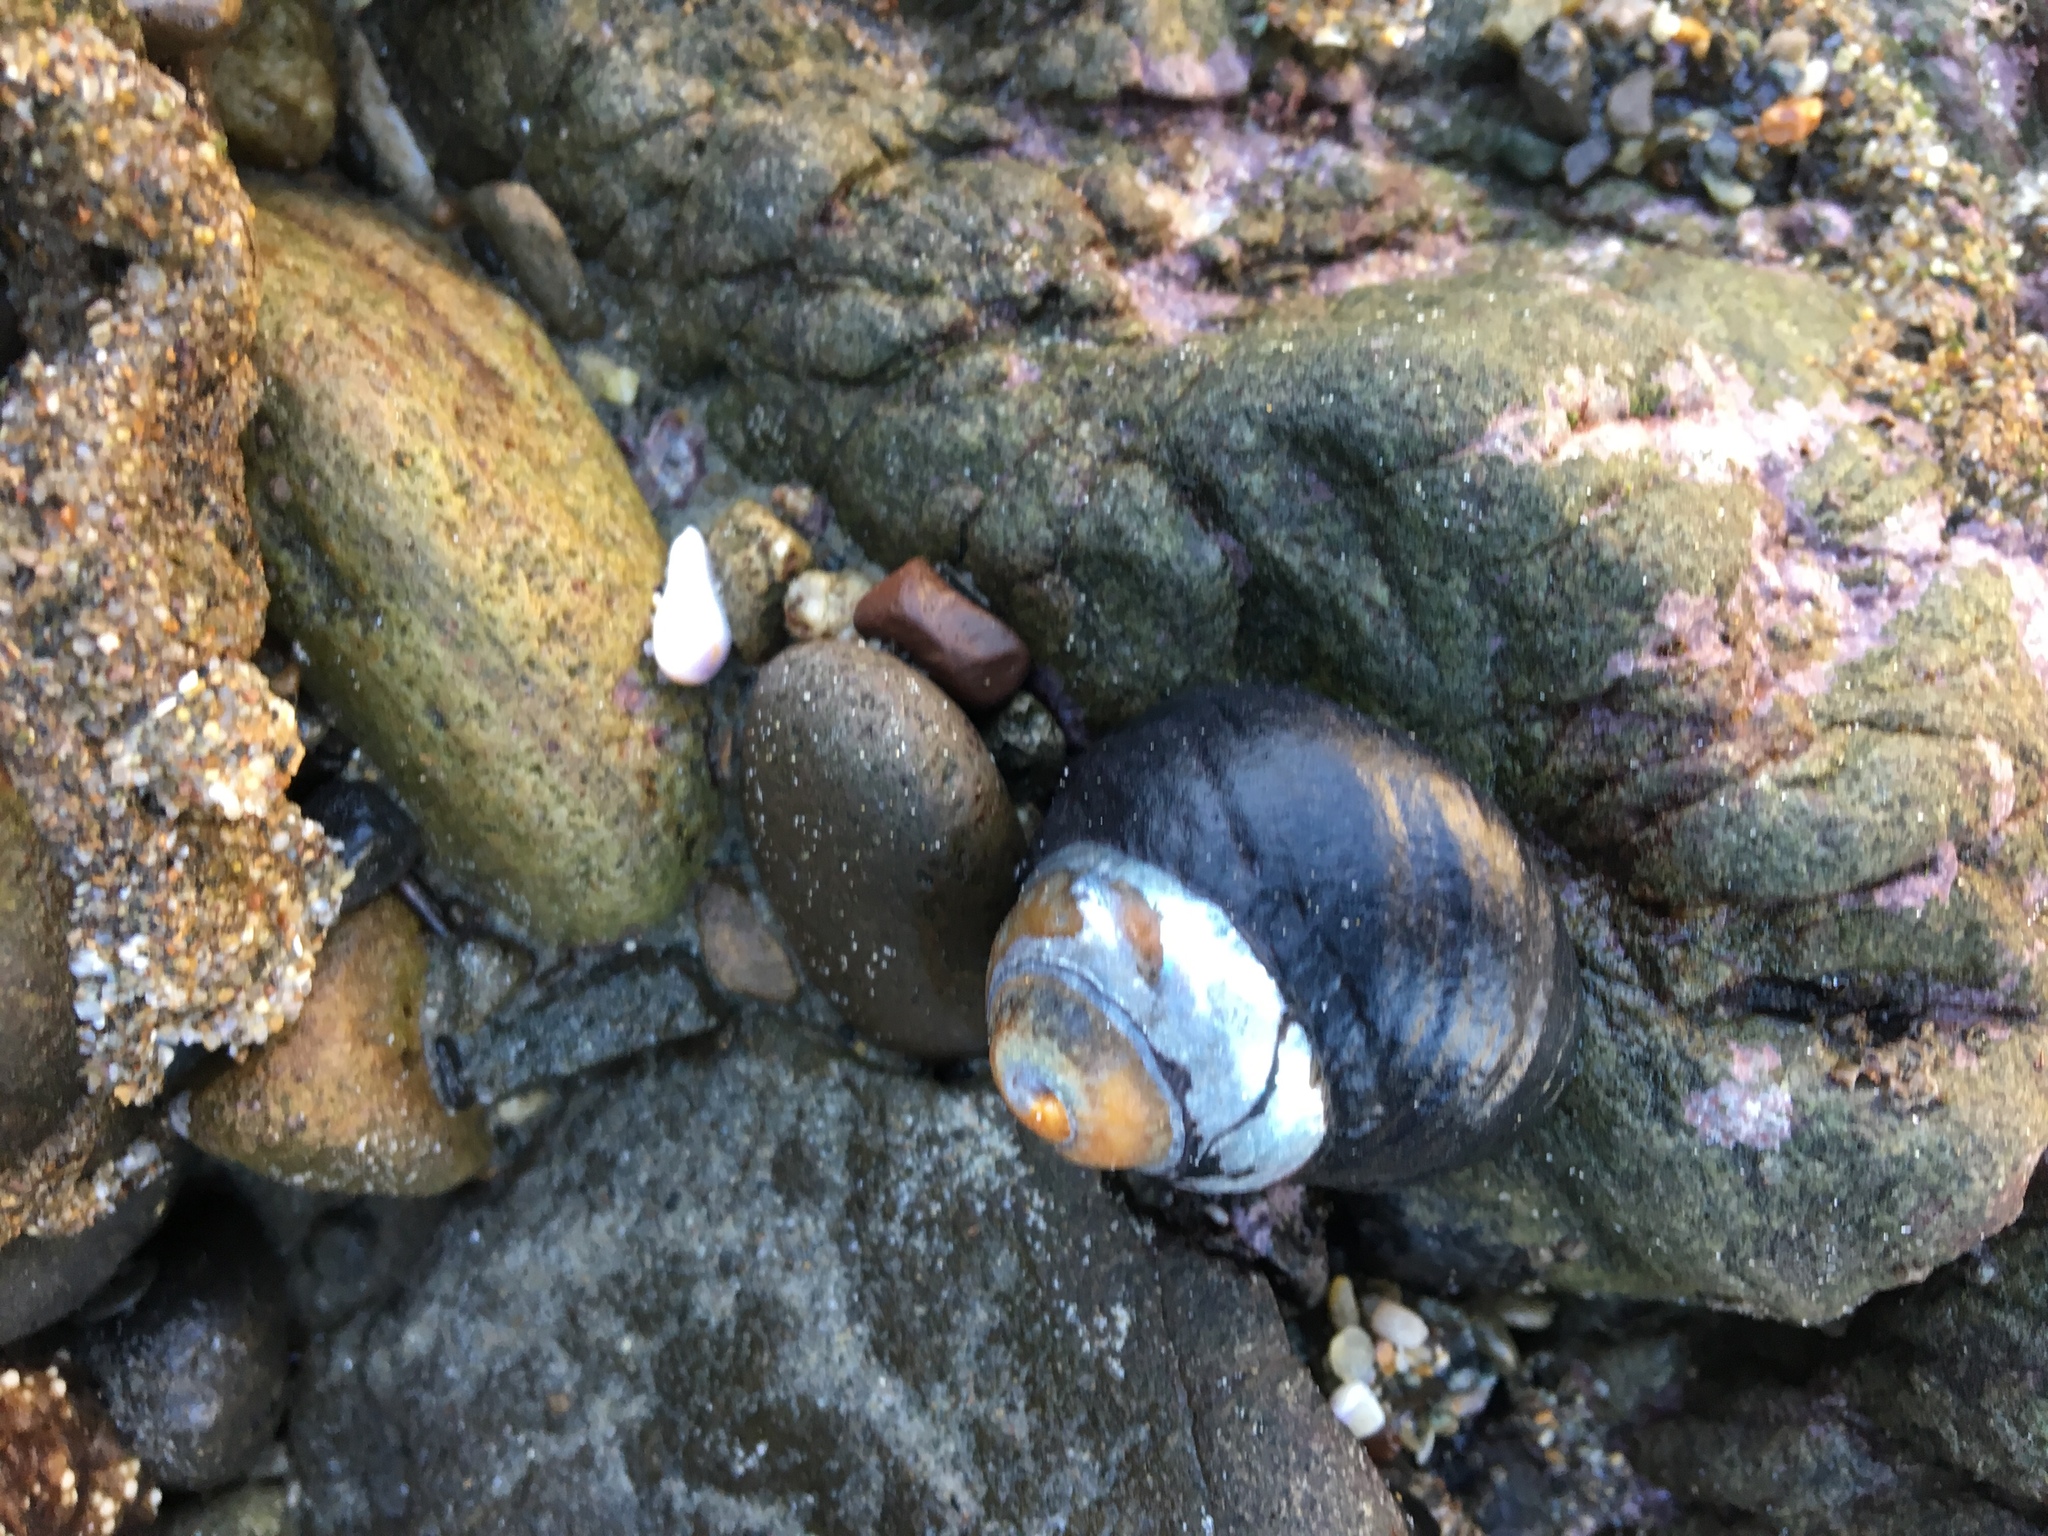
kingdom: Animalia
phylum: Mollusca
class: Gastropoda
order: Trochida
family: Tegulidae
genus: Tegula
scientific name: Tegula funebralis
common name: Black tegula
